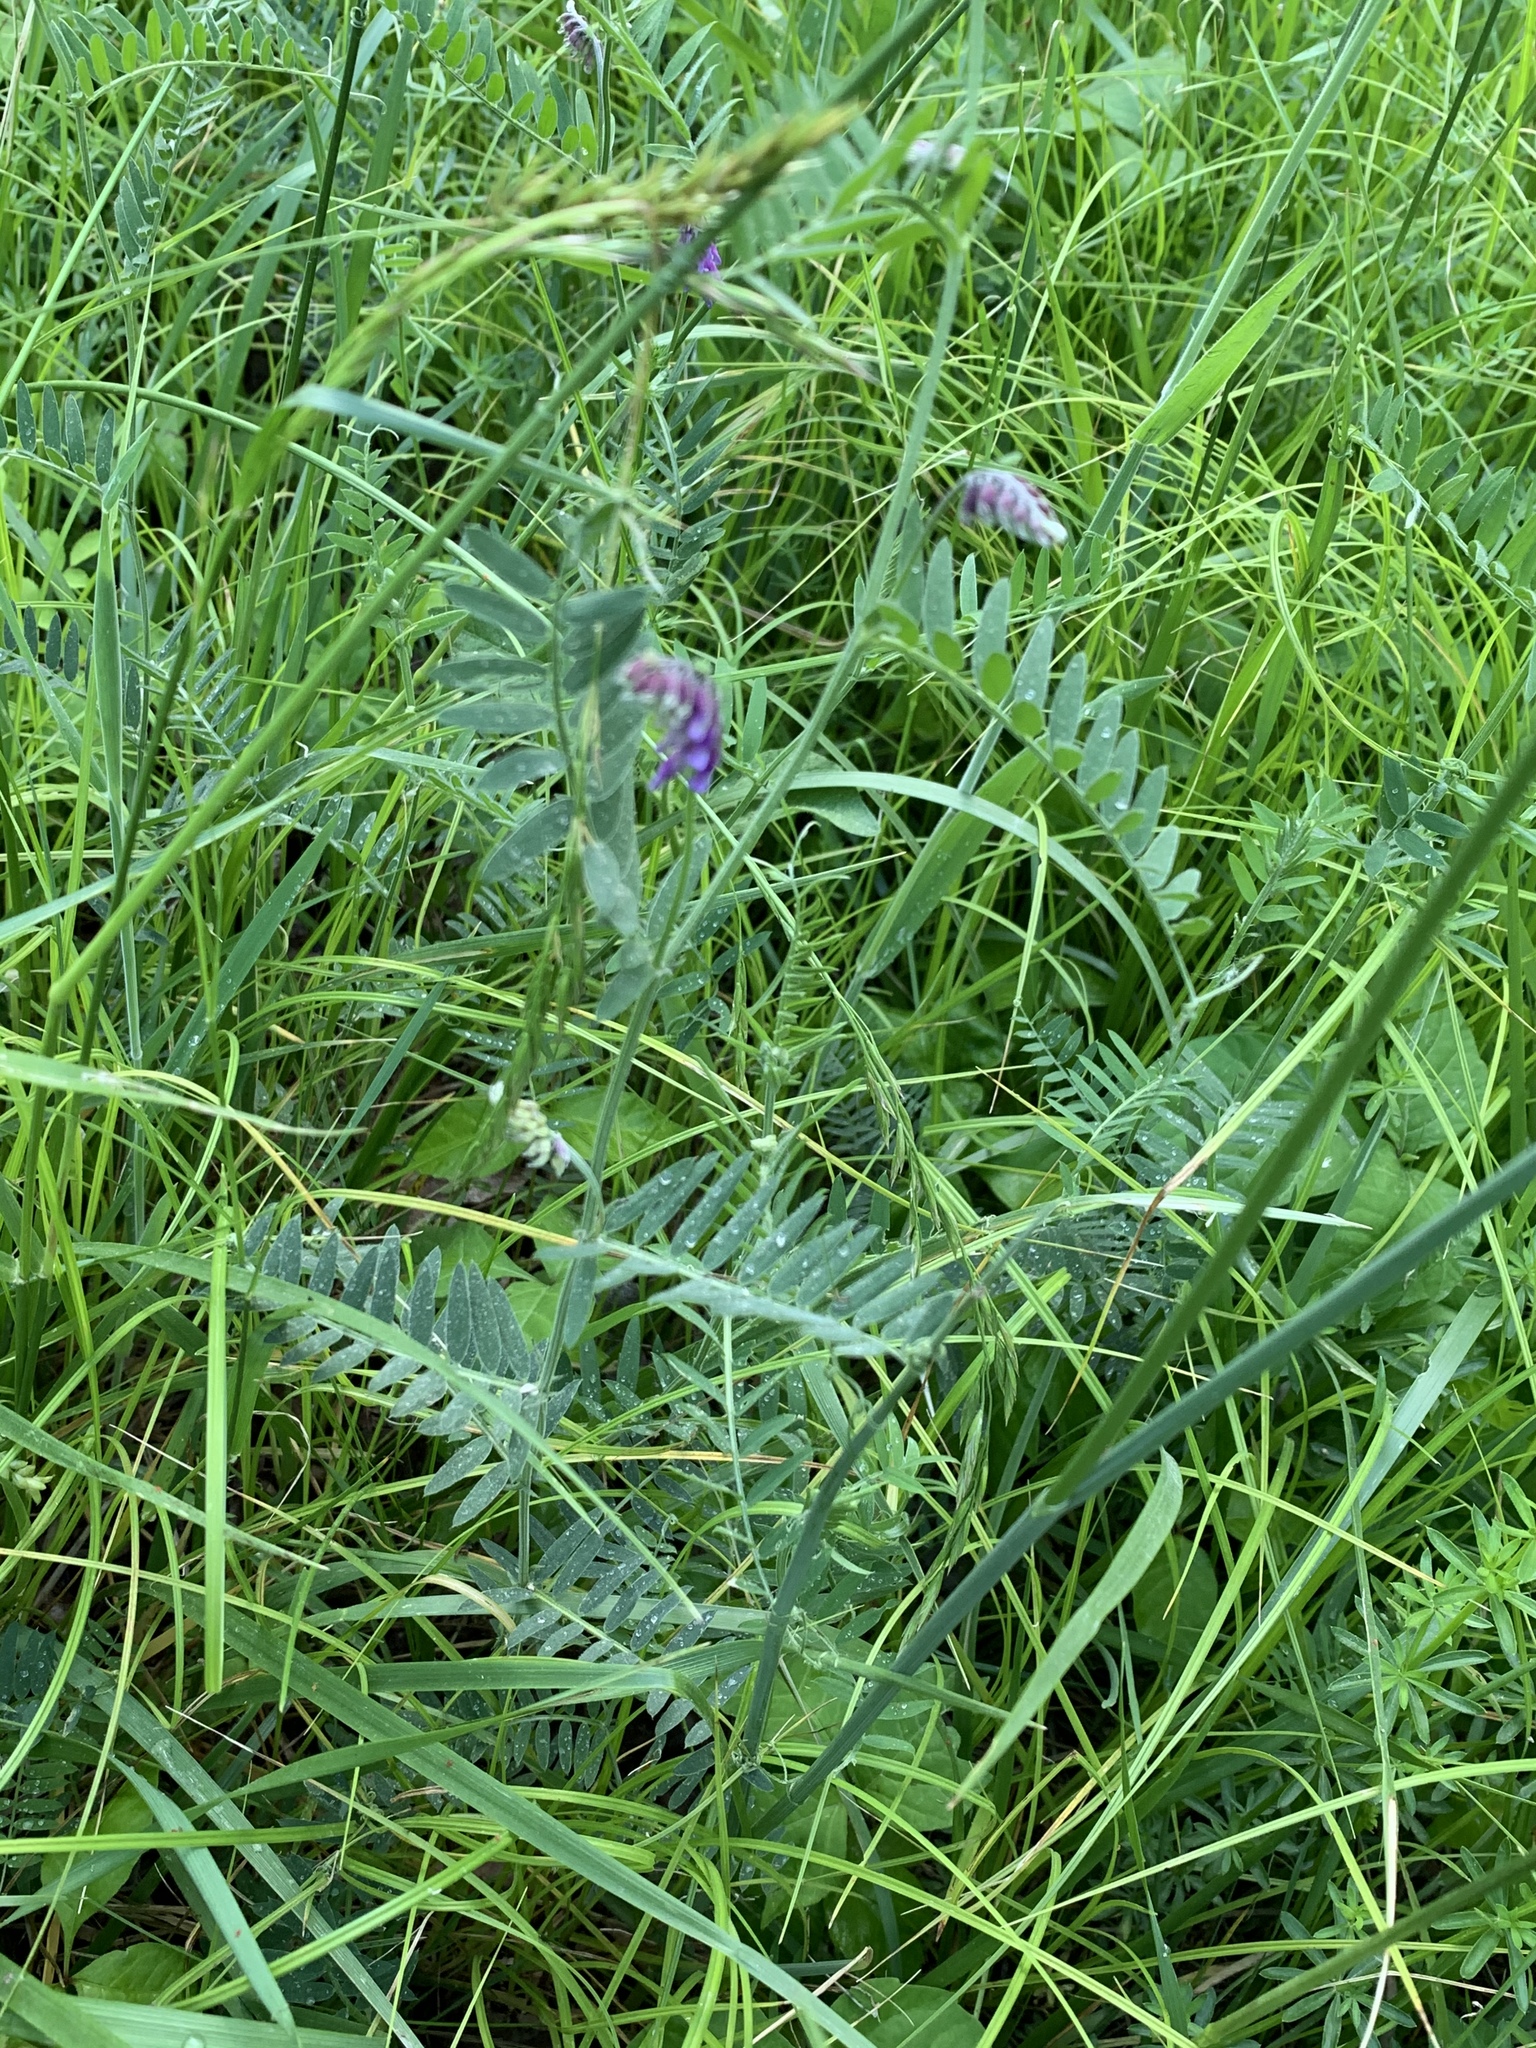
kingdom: Plantae
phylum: Tracheophyta
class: Magnoliopsida
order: Fabales
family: Fabaceae
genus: Vicia
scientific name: Vicia villosa
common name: Fodder vetch
